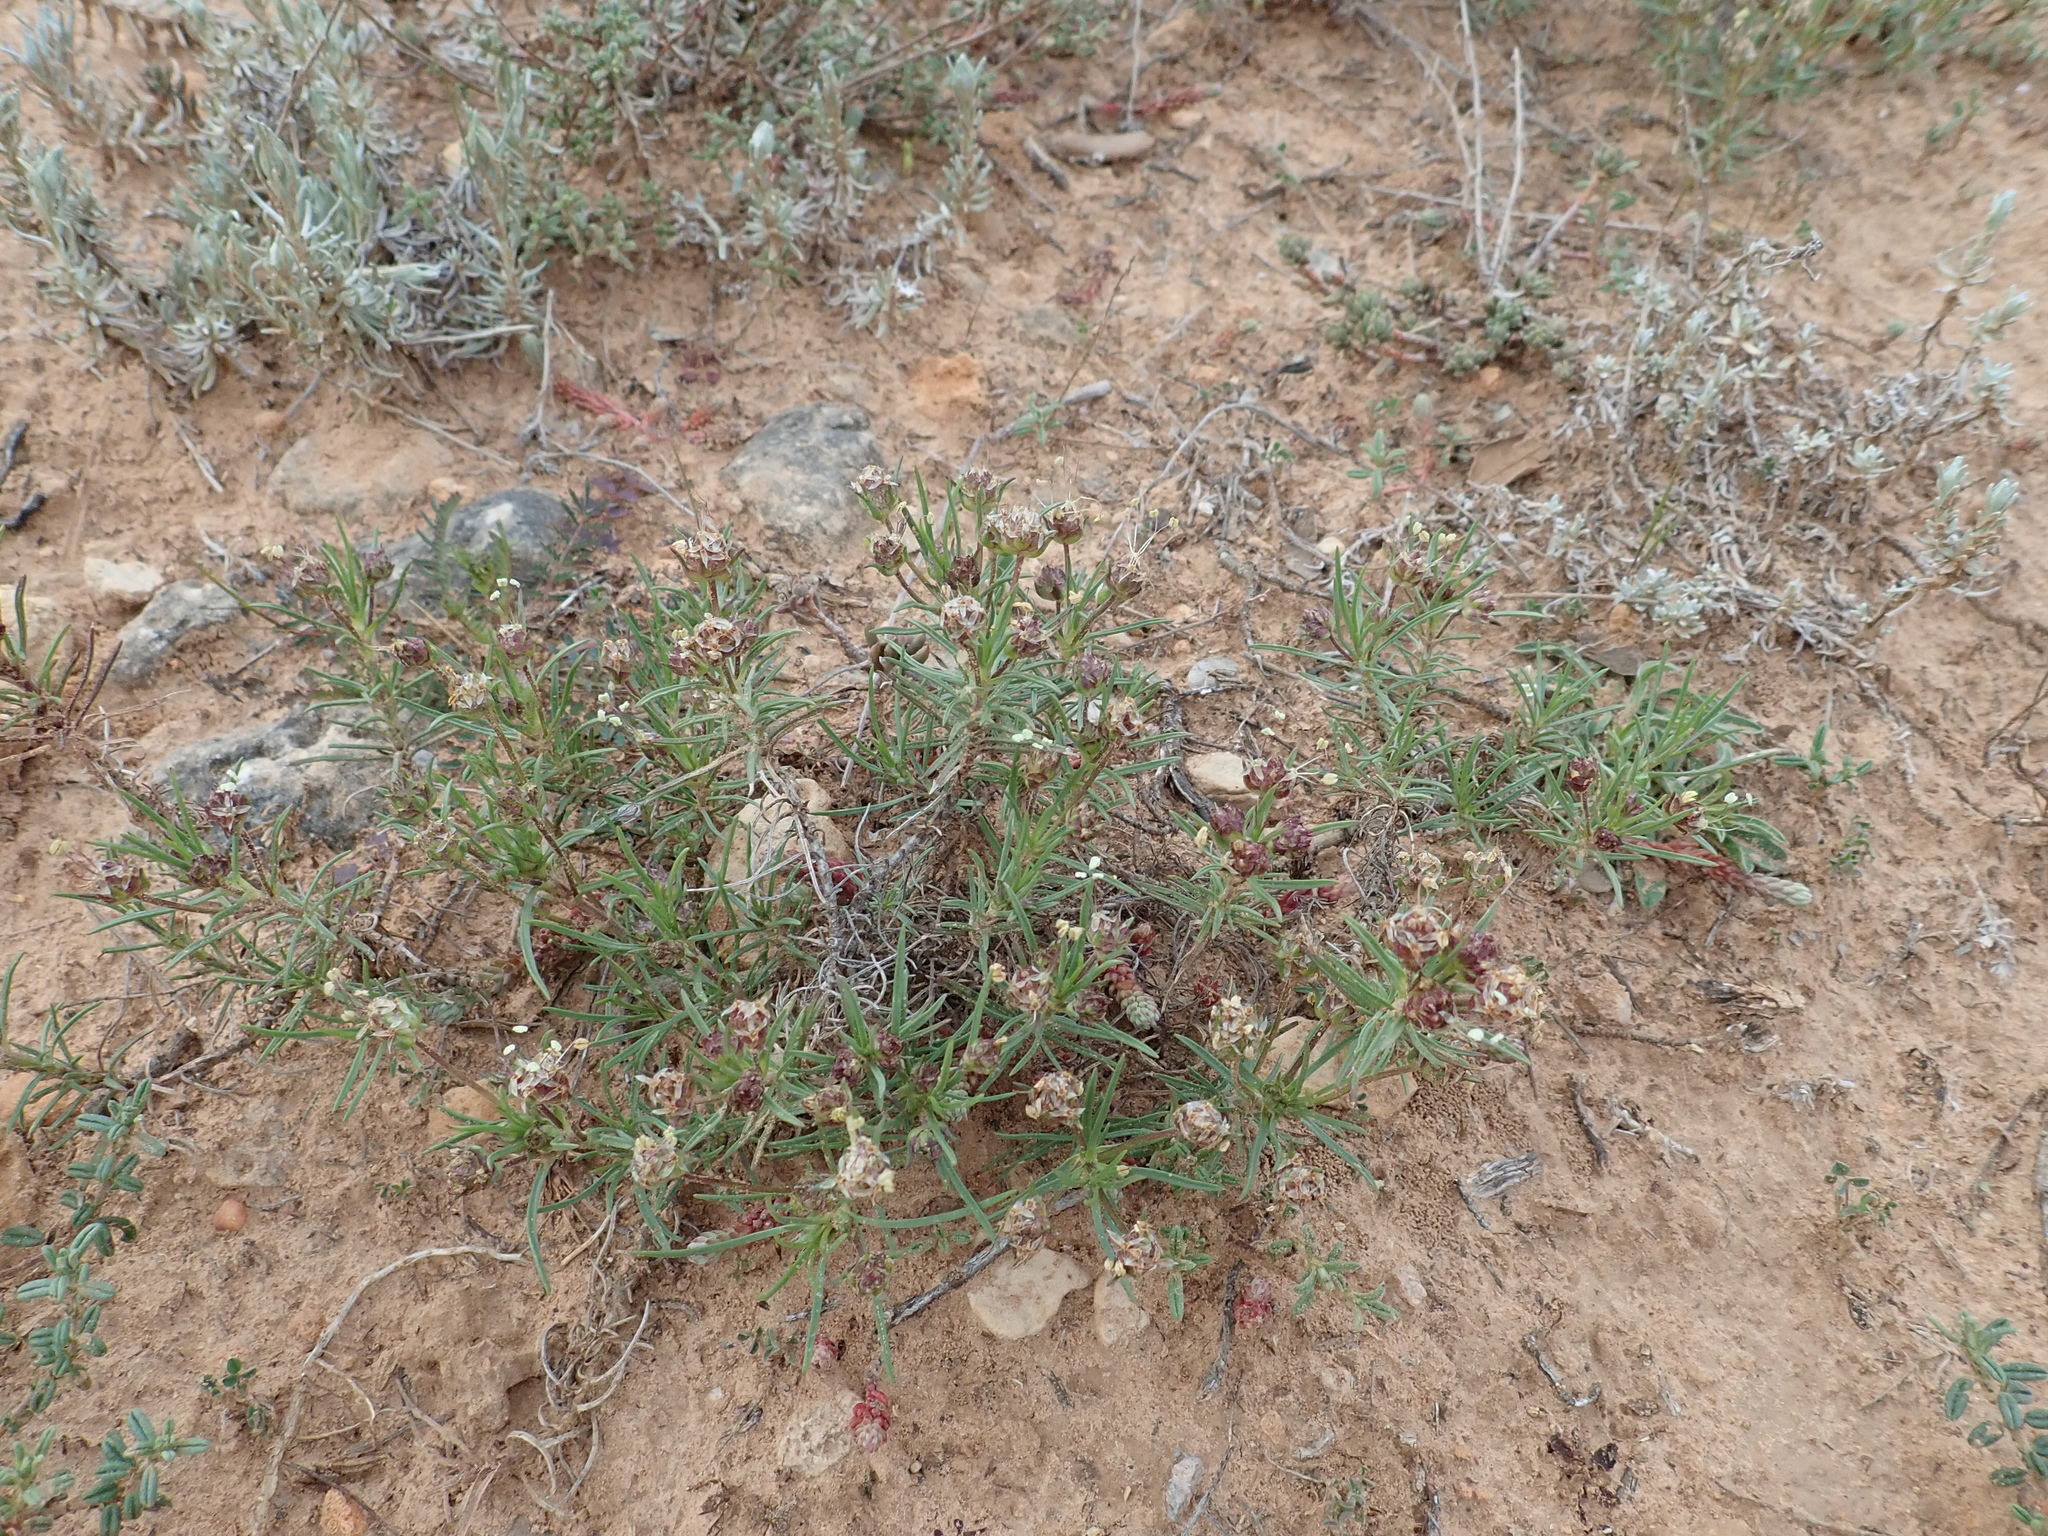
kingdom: Plantae
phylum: Tracheophyta
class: Magnoliopsida
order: Lamiales
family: Plantaginaceae
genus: Plantago
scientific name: Plantago sempervirens
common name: Shrubby plantain
